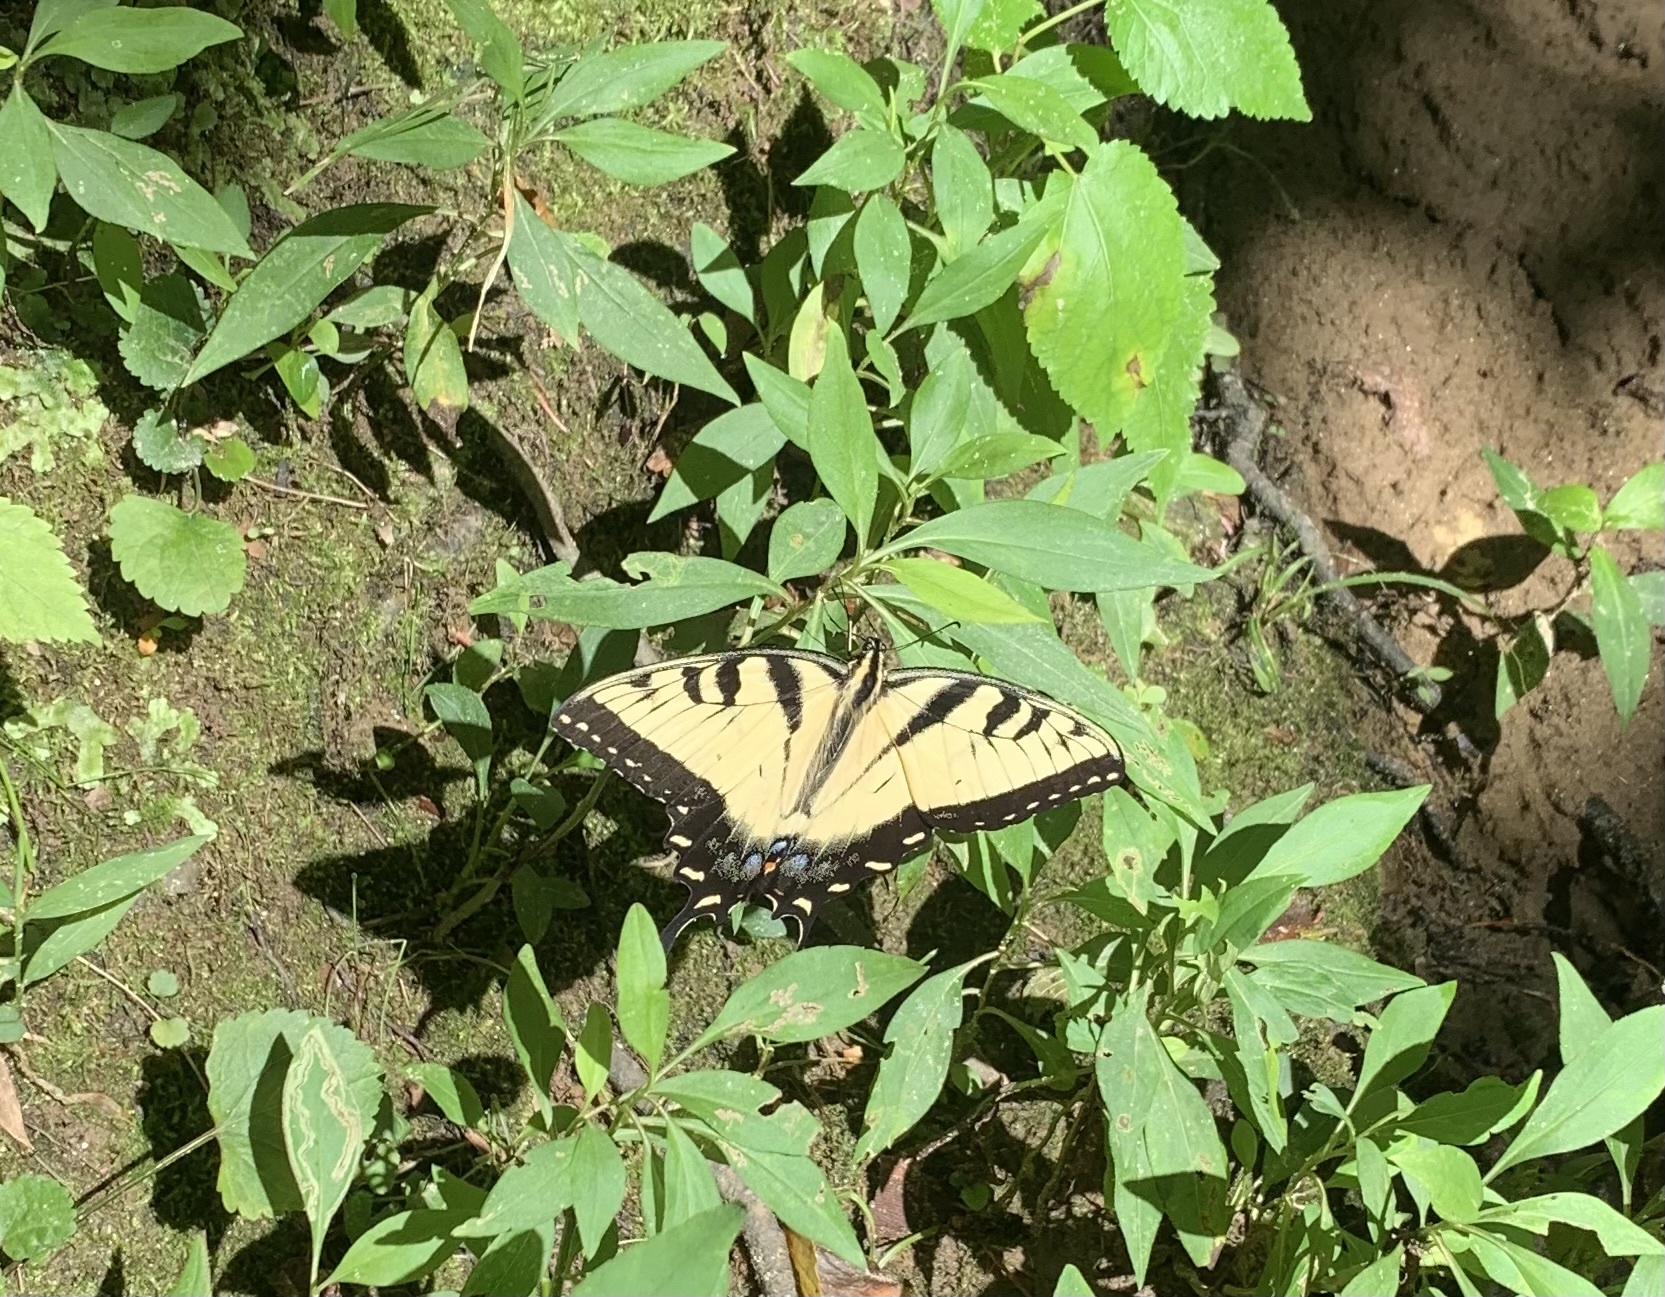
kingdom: Animalia
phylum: Arthropoda
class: Insecta
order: Lepidoptera
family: Papilionidae
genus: Papilio
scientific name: Papilio glaucus
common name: Tiger swallowtail
